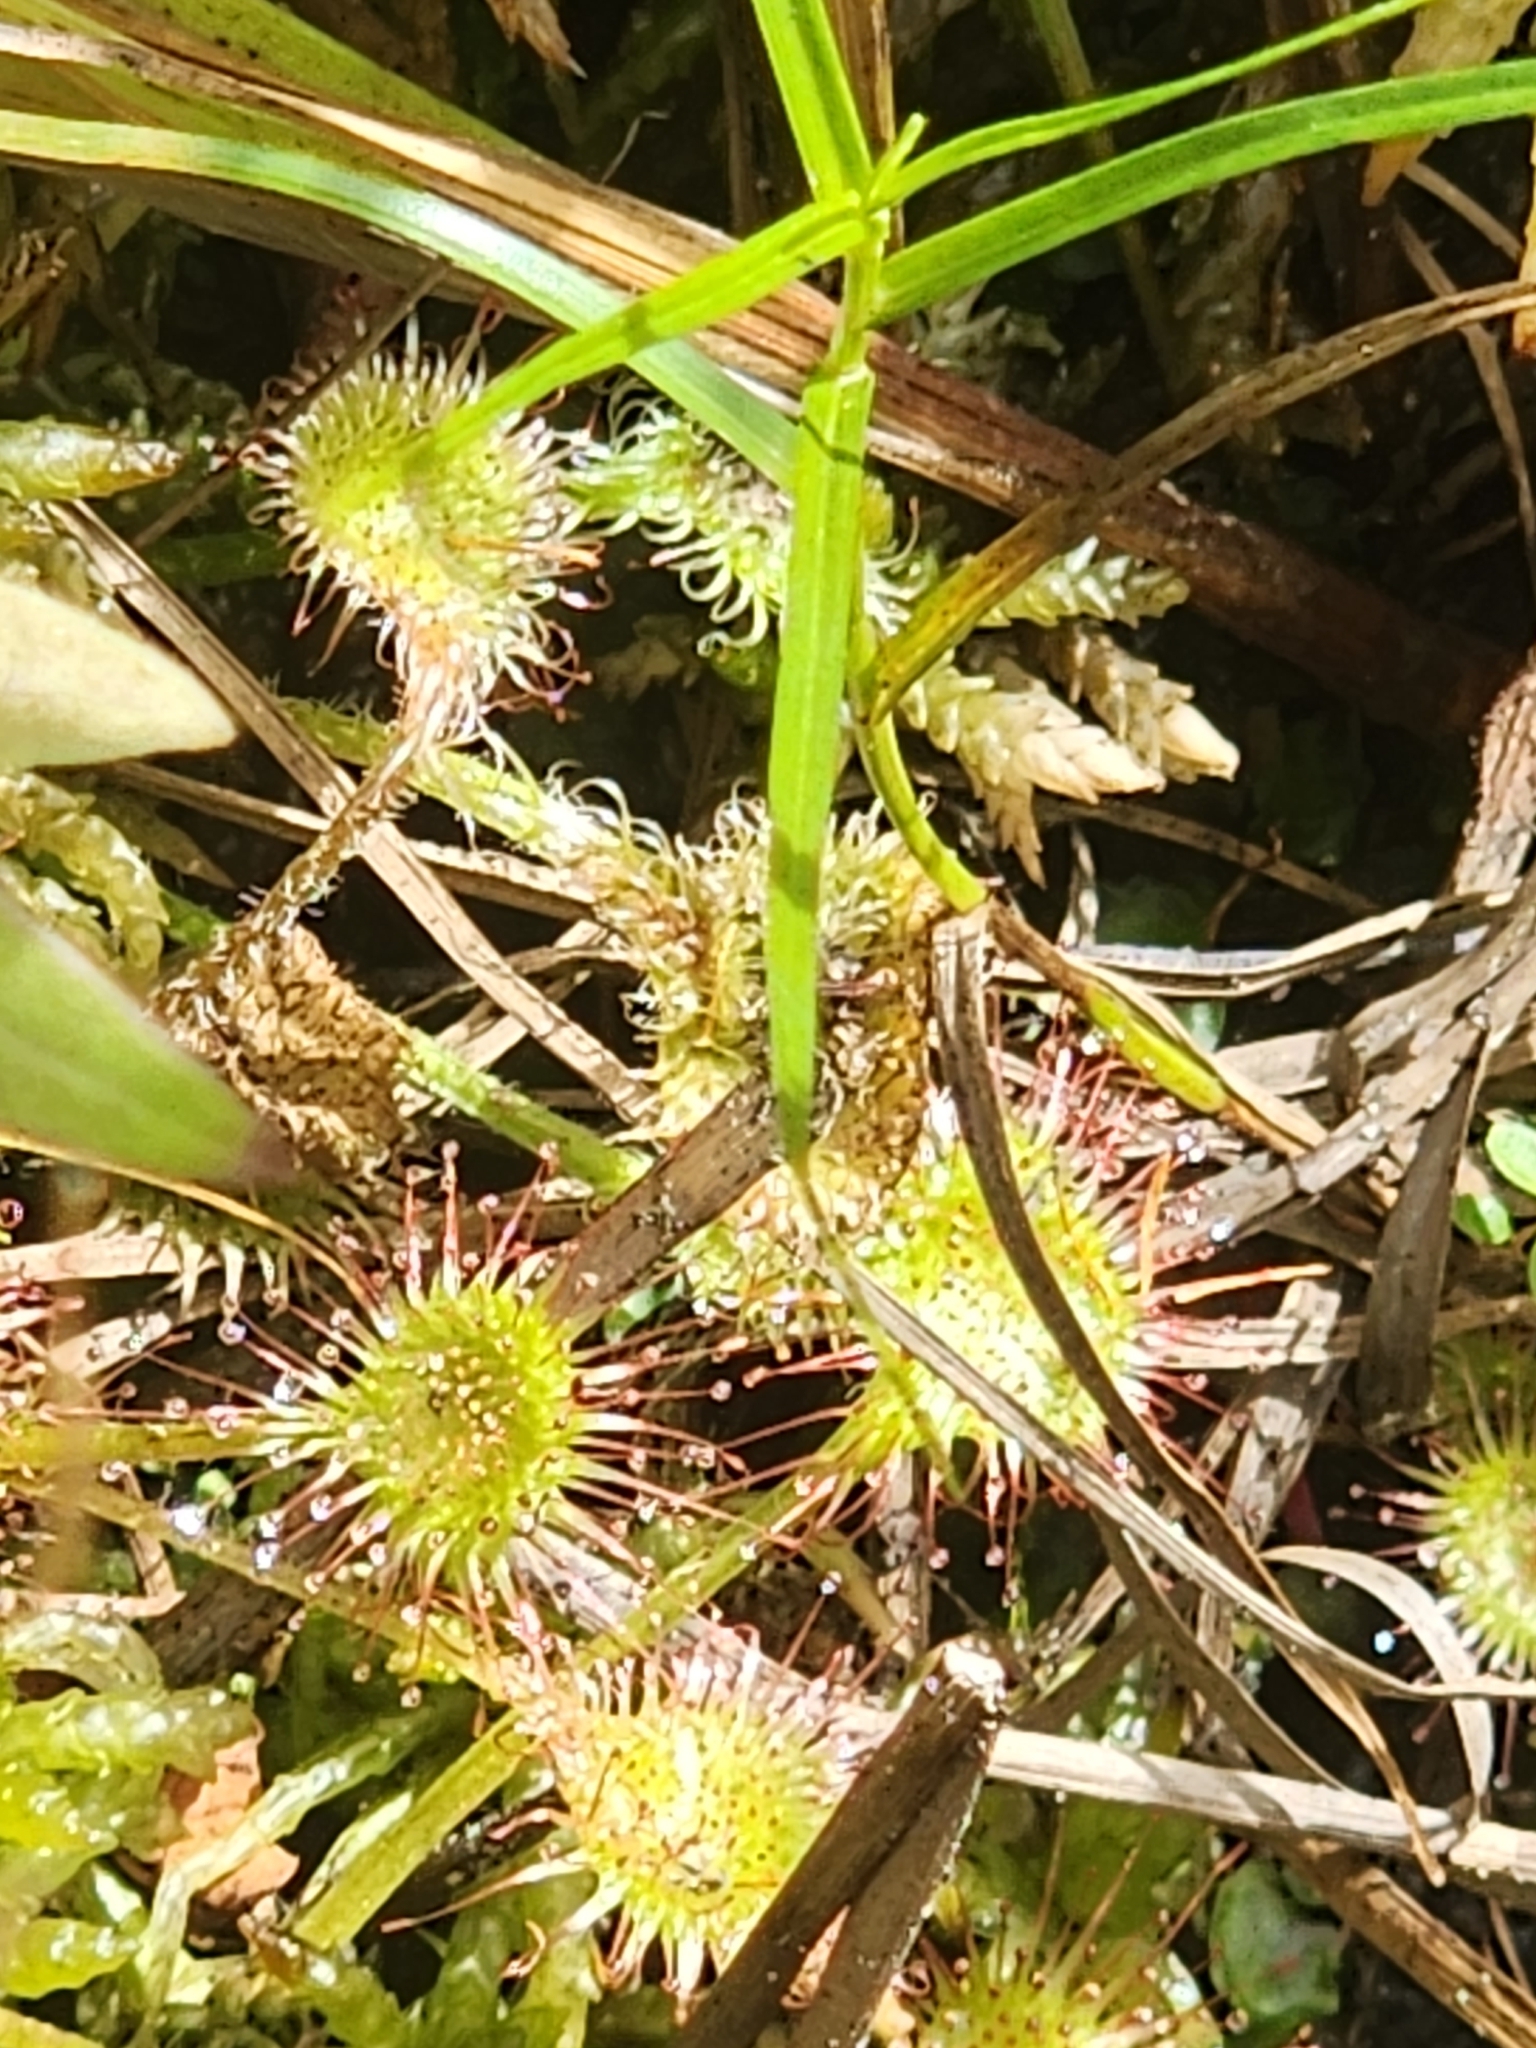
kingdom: Plantae
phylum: Tracheophyta
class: Magnoliopsida
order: Caryophyllales
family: Droseraceae
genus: Drosera
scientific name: Drosera rotundifolia
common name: Round-leaved sundew
